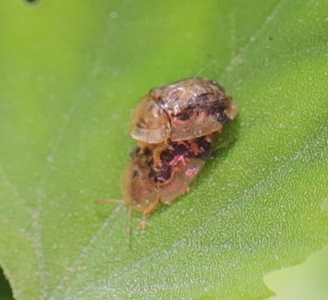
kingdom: Animalia
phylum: Arthropoda
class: Insecta
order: Coleoptera
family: Chrysomelidae
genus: Cassida
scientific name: Cassida piperata
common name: Small tortoise beetle
